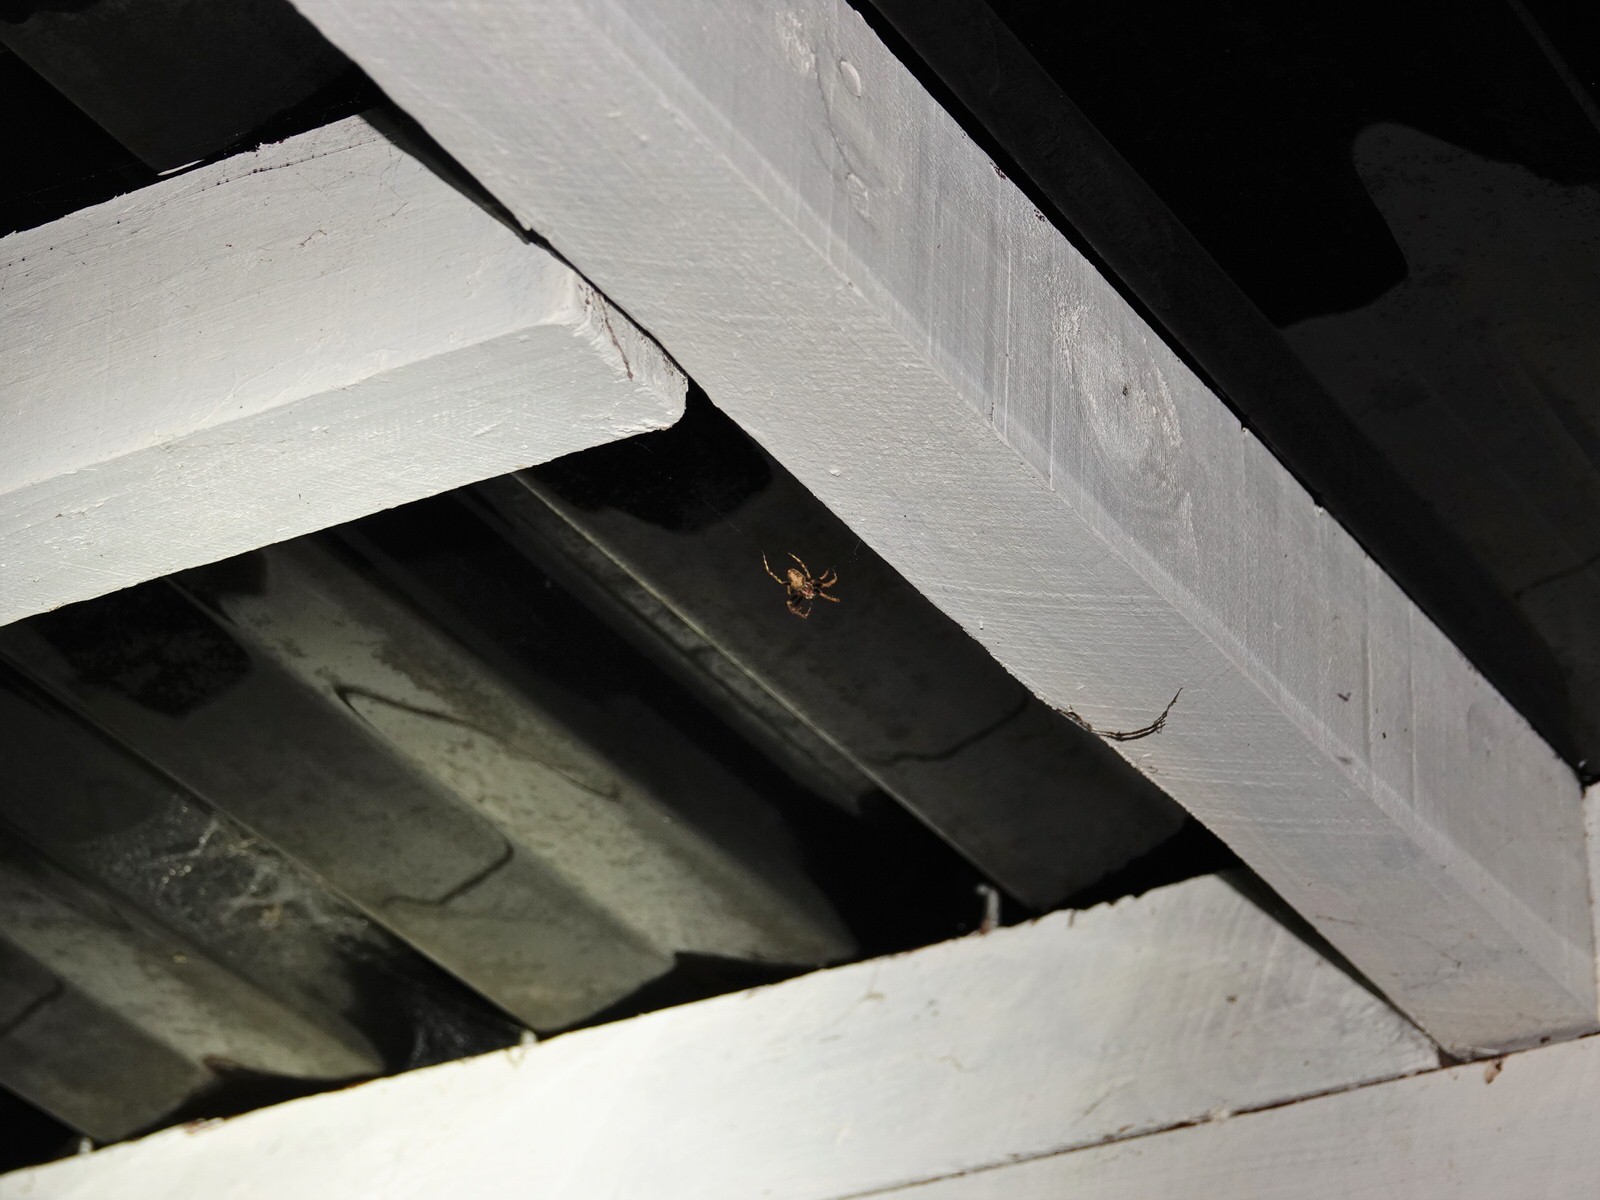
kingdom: Animalia
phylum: Arthropoda
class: Arachnida
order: Araneae
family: Araneidae
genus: Eriophora
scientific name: Eriophora pustulosa
